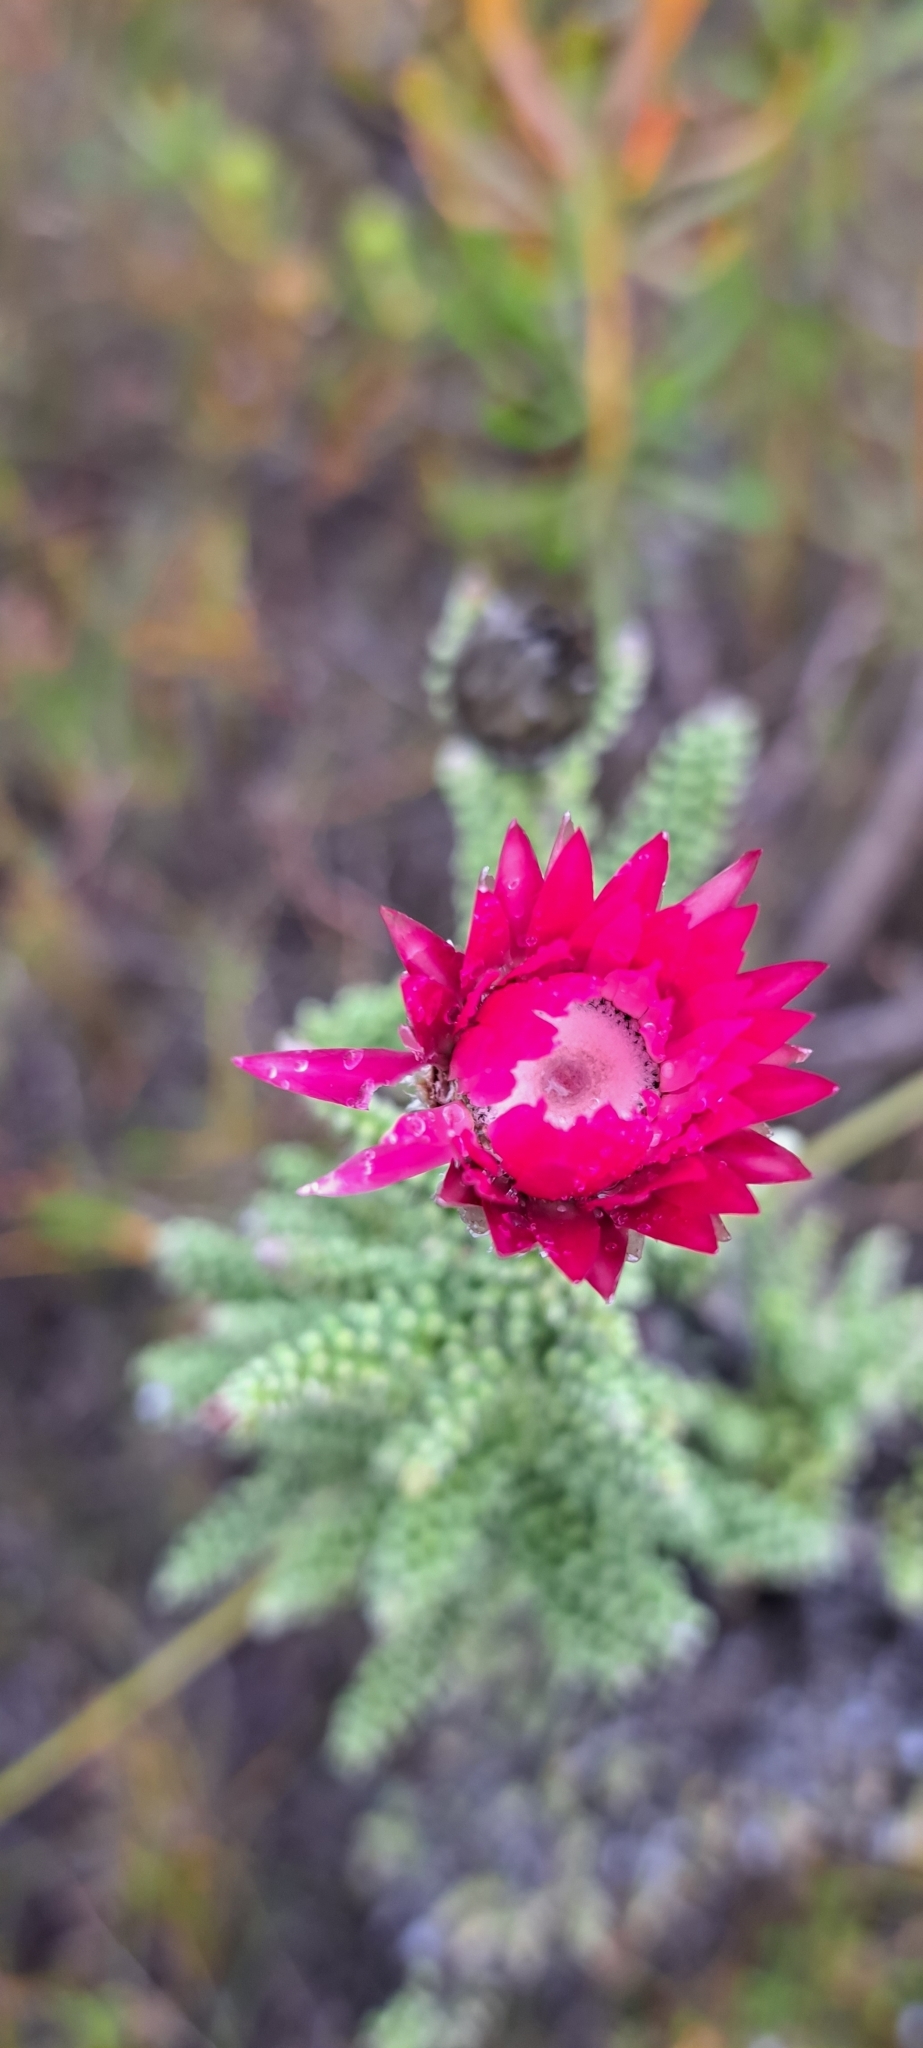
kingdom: Plantae
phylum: Tracheophyta
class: Magnoliopsida
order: Asterales
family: Asteraceae
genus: Phaenocoma
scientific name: Phaenocoma prolifera
